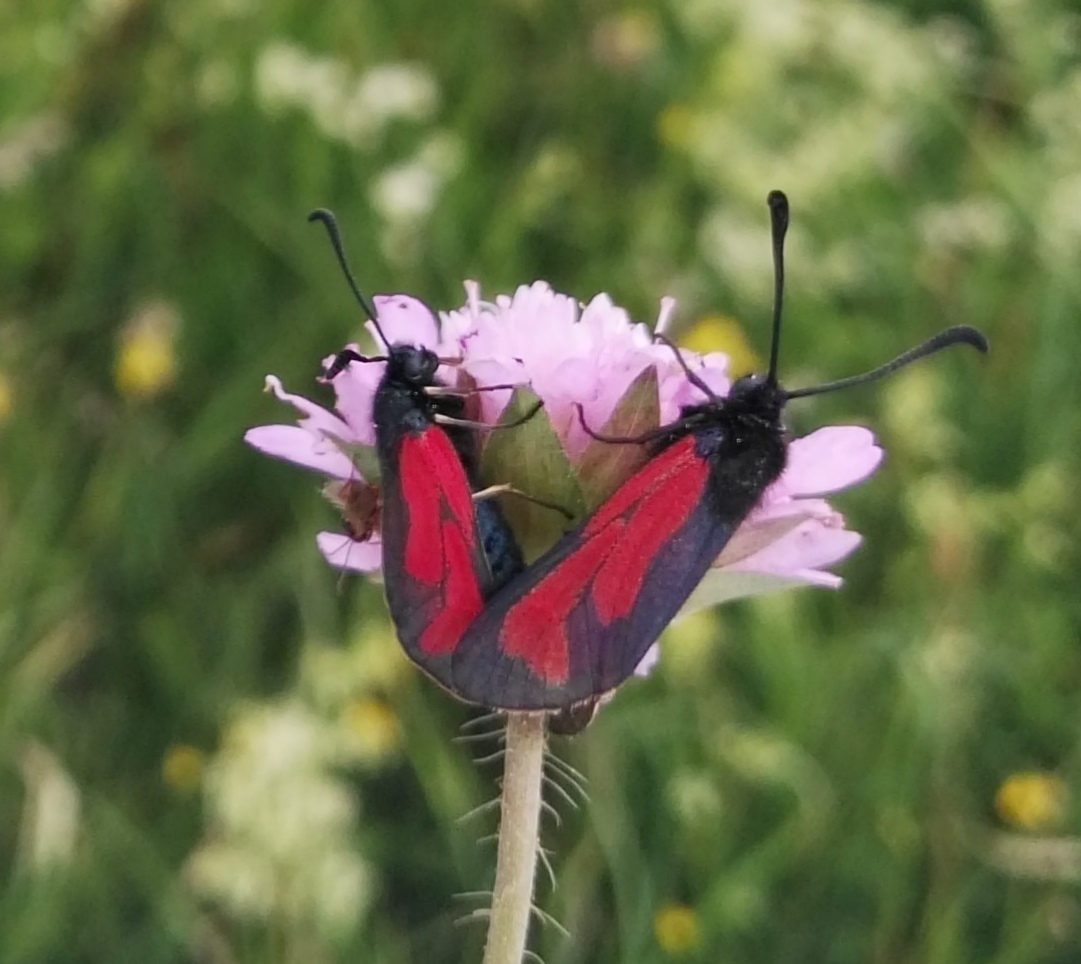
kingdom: Animalia
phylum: Arthropoda
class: Insecta
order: Lepidoptera
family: Zygaenidae
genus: Zygaena
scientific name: Zygaena purpuralis
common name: Transparent burnet
